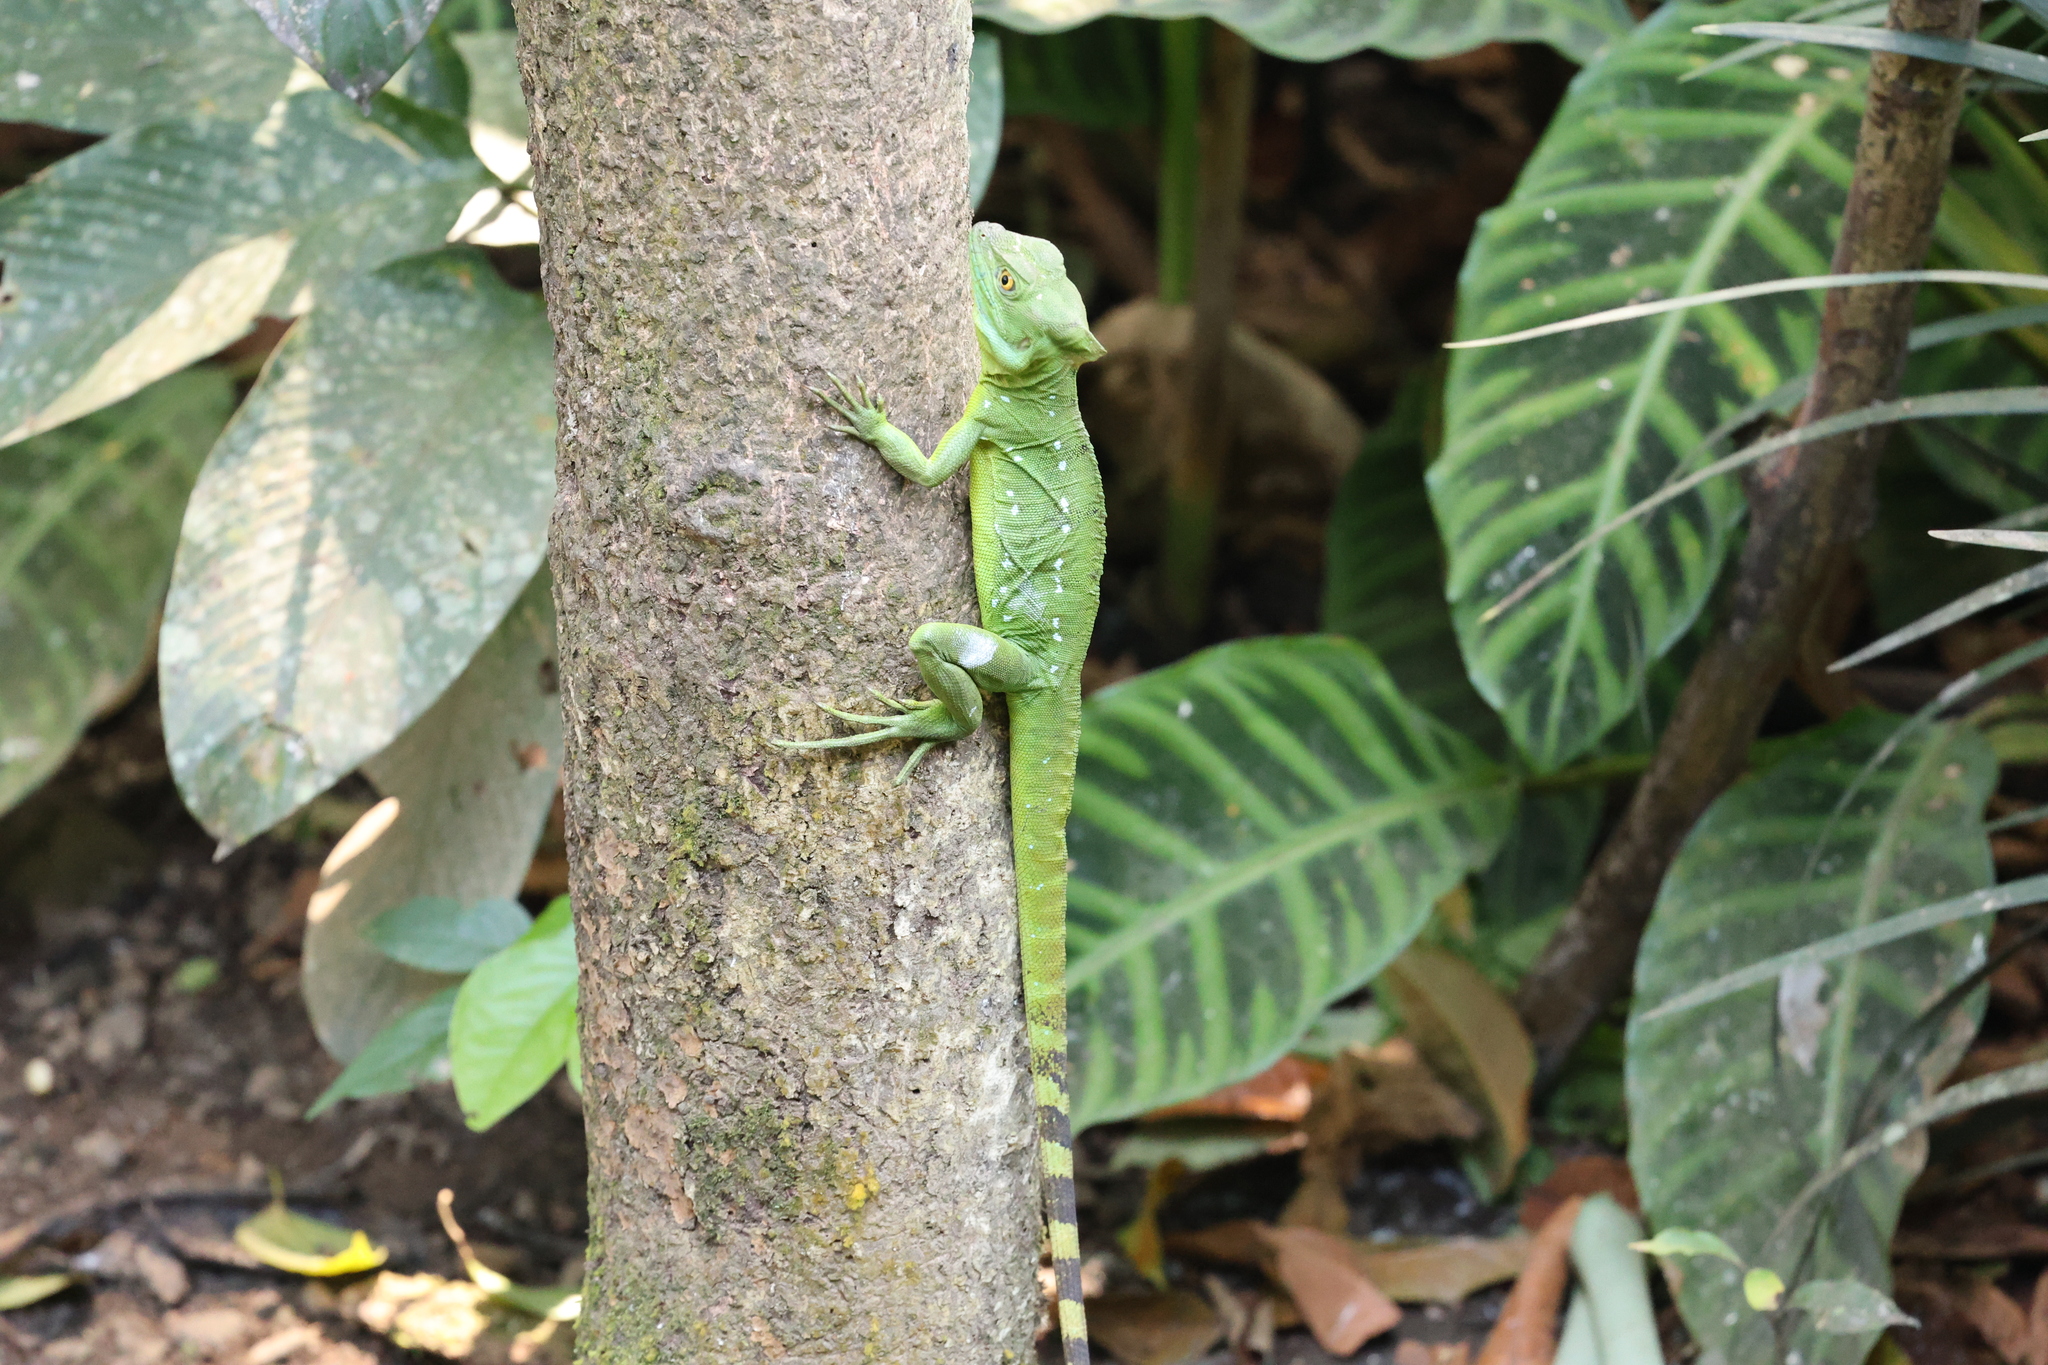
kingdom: Animalia
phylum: Chordata
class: Squamata
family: Corytophanidae
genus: Basiliscus
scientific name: Basiliscus plumifrons
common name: Green basilisk
